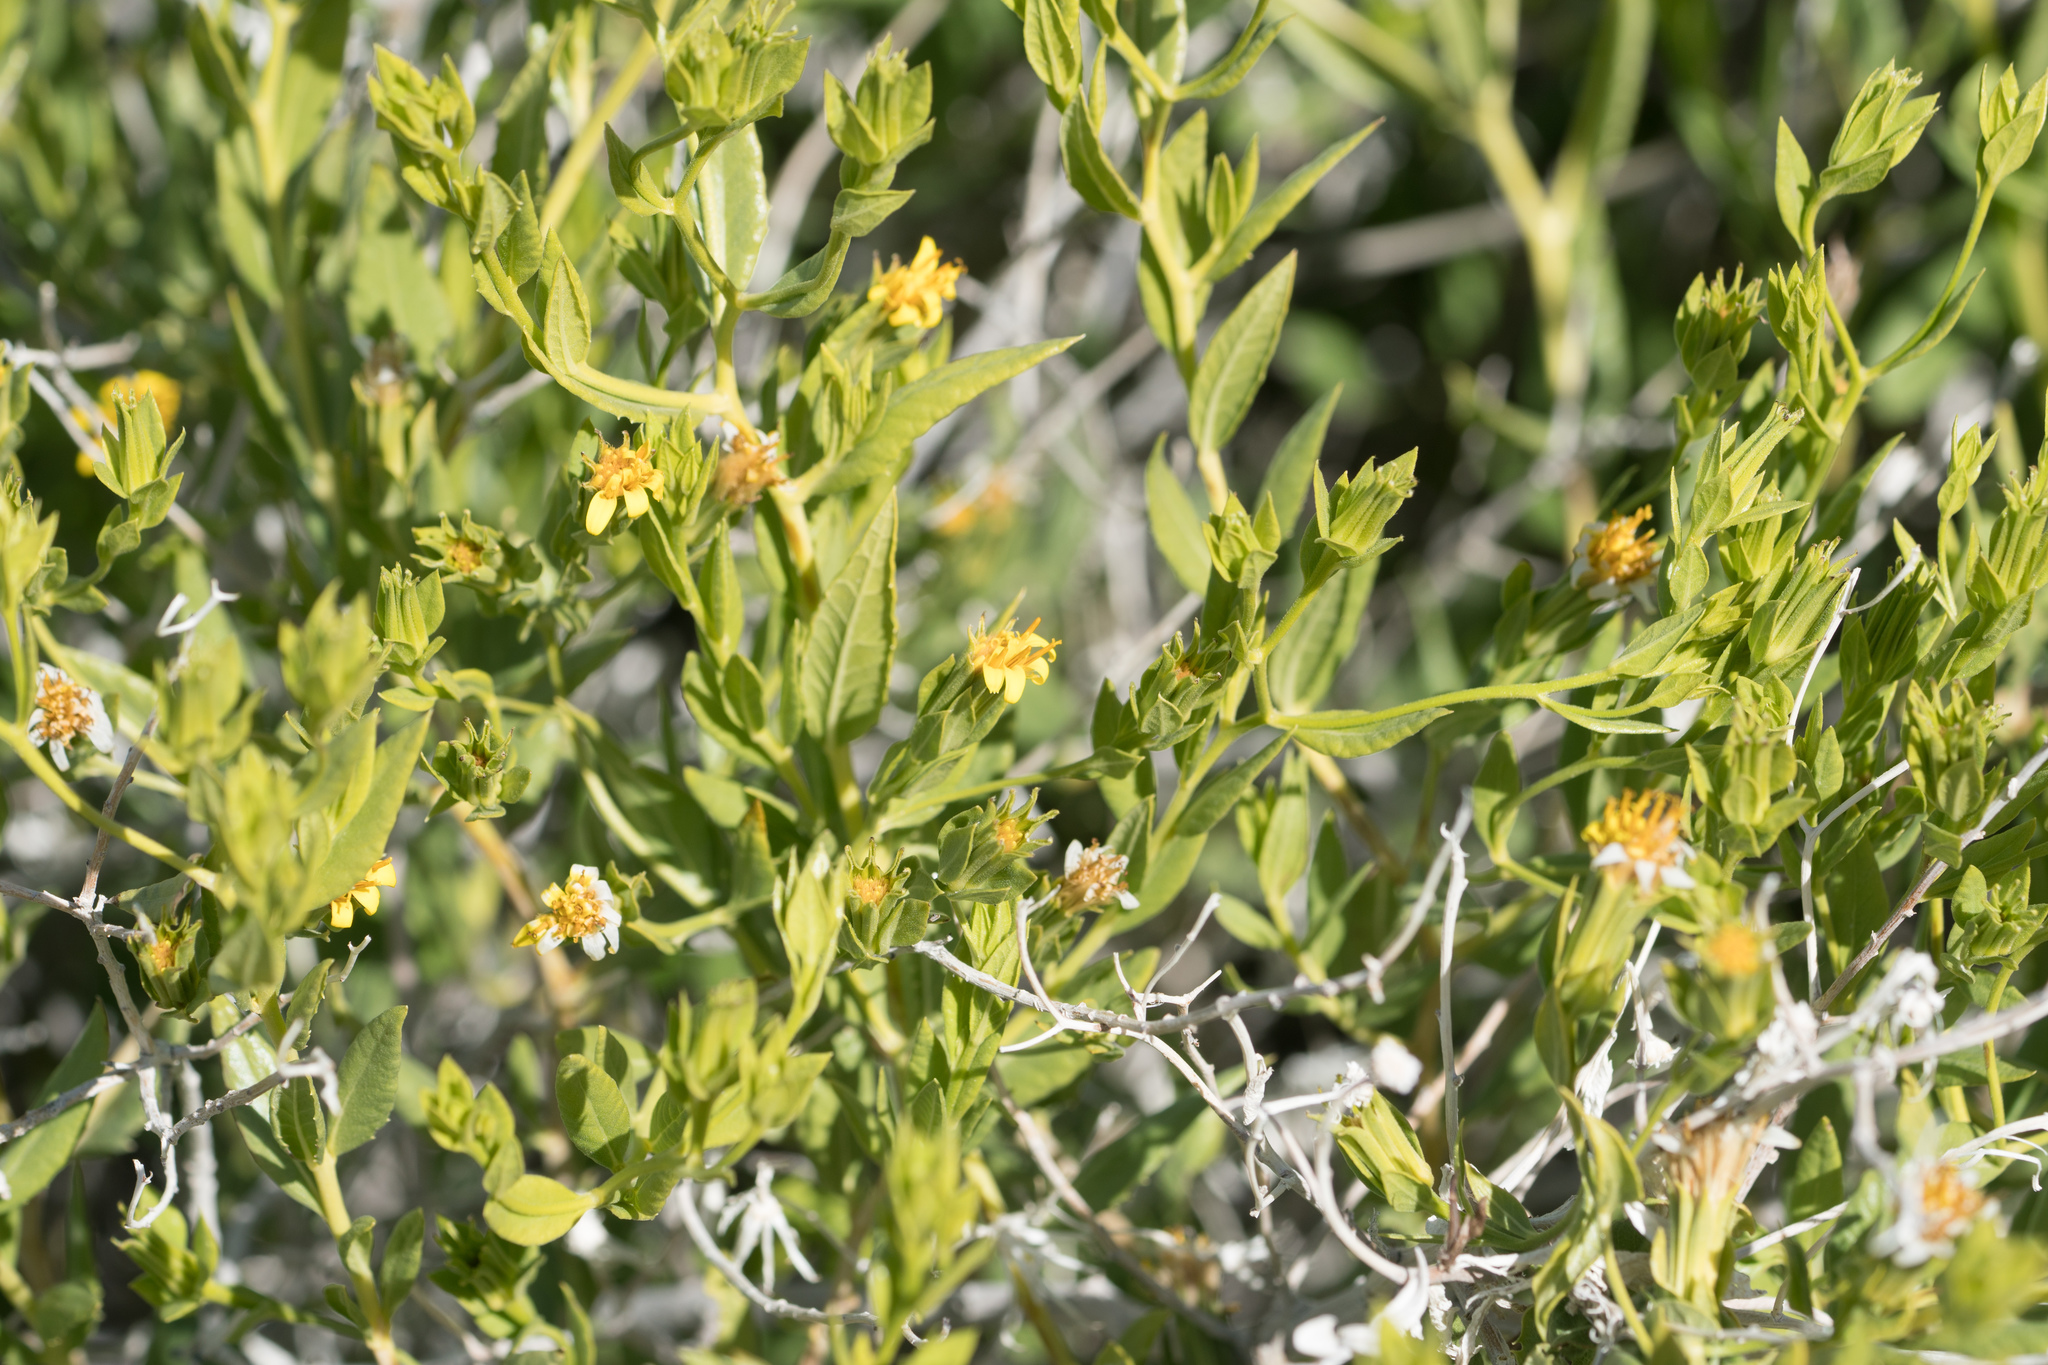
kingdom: Plantae
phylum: Tracheophyta
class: Magnoliopsida
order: Asterales
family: Asteraceae
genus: Trixis
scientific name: Trixis californica
